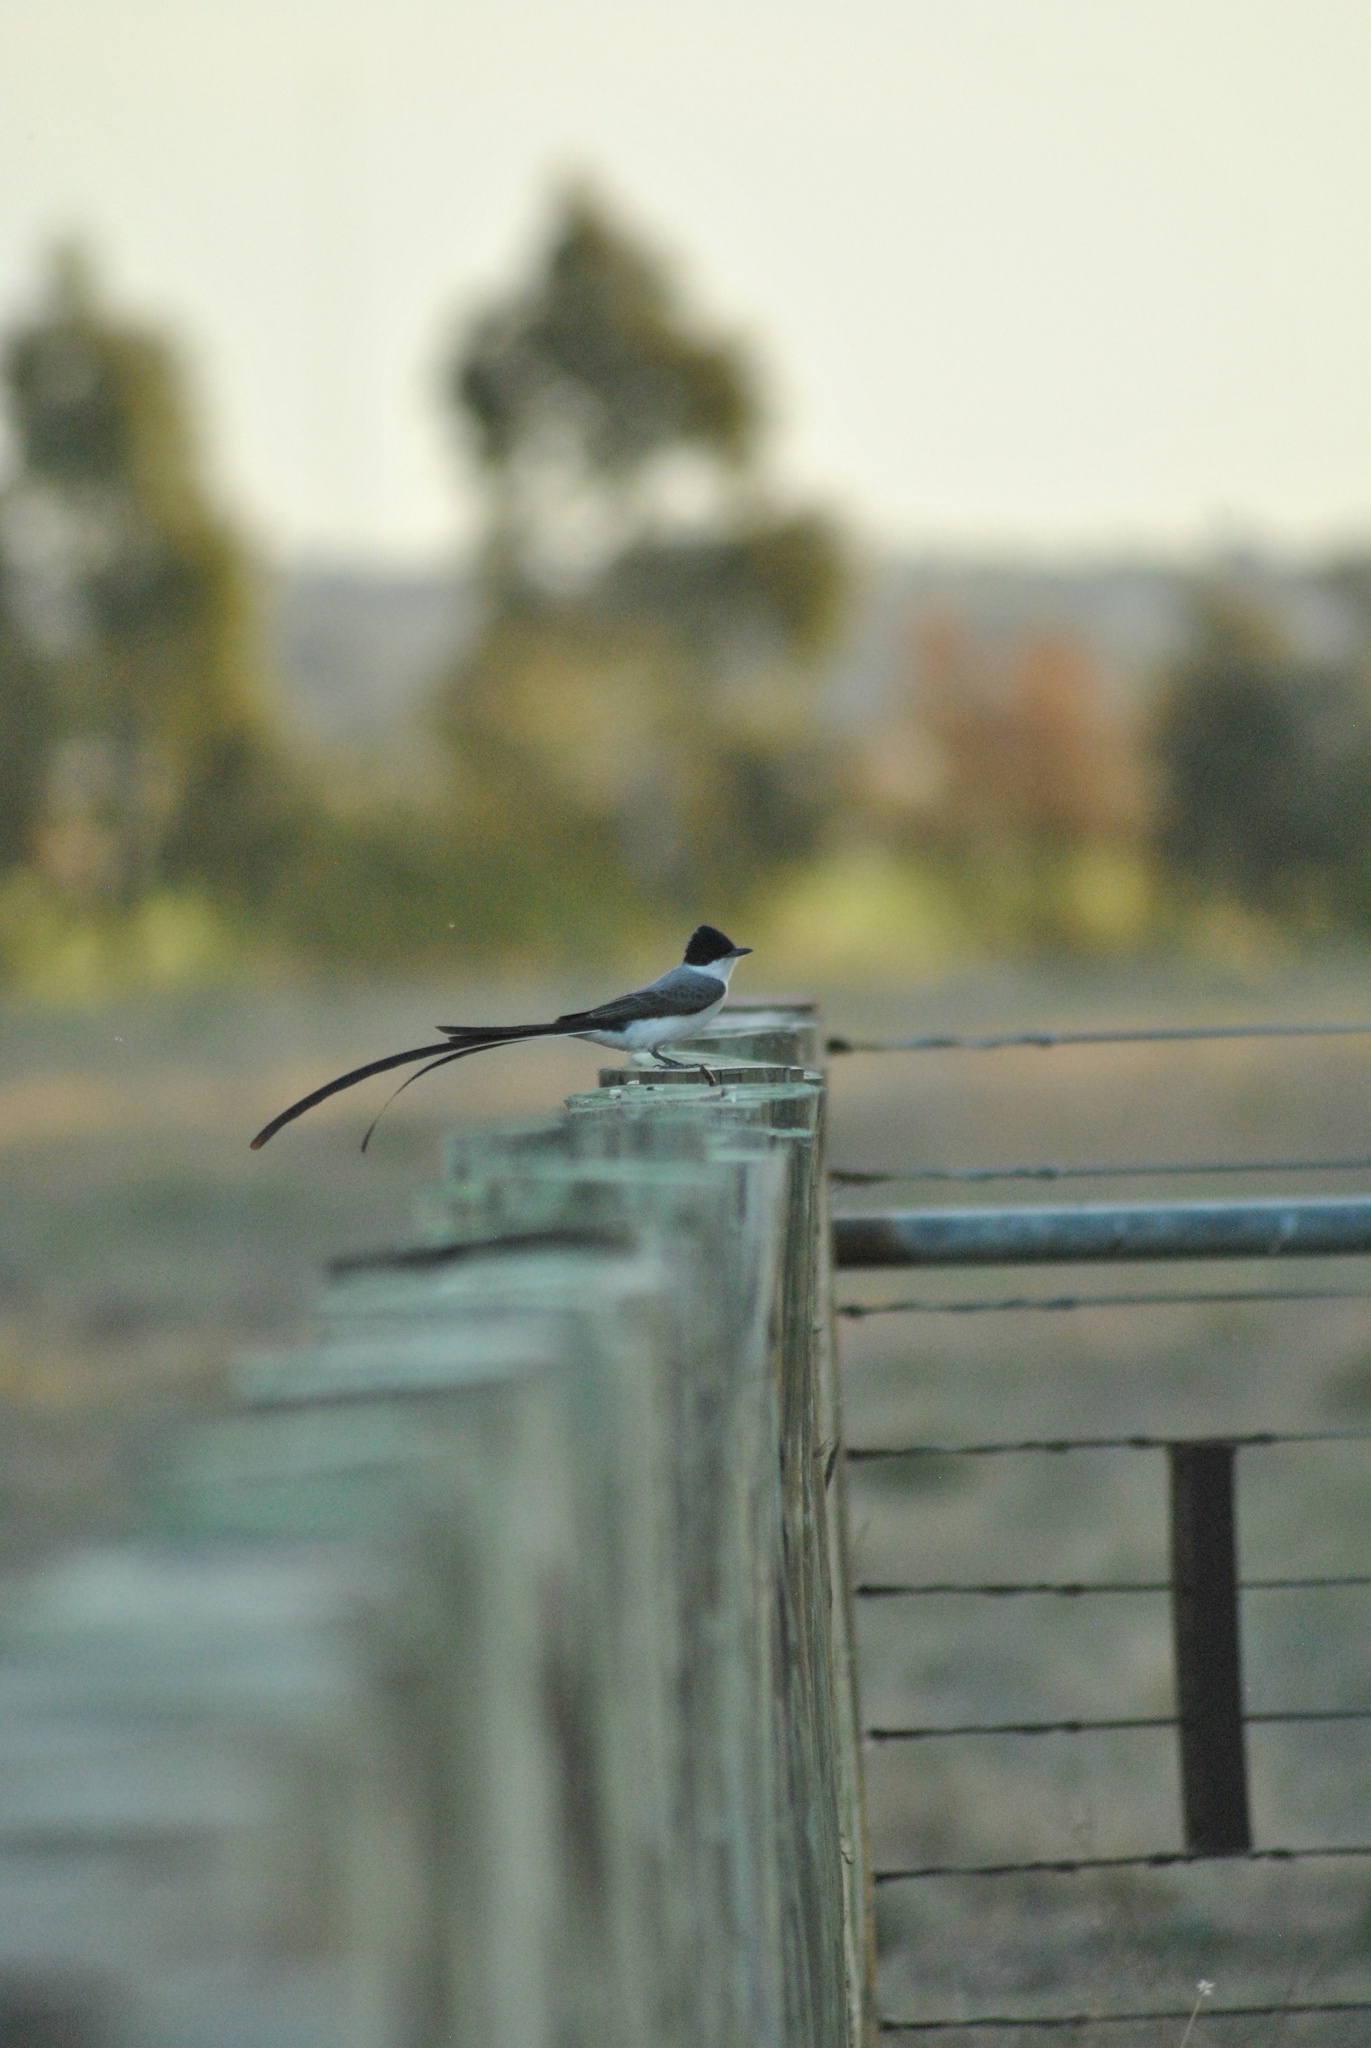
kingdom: Animalia
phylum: Chordata
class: Aves
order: Passeriformes
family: Tyrannidae
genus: Tyrannus
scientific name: Tyrannus savana
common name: Fork-tailed flycatcher
